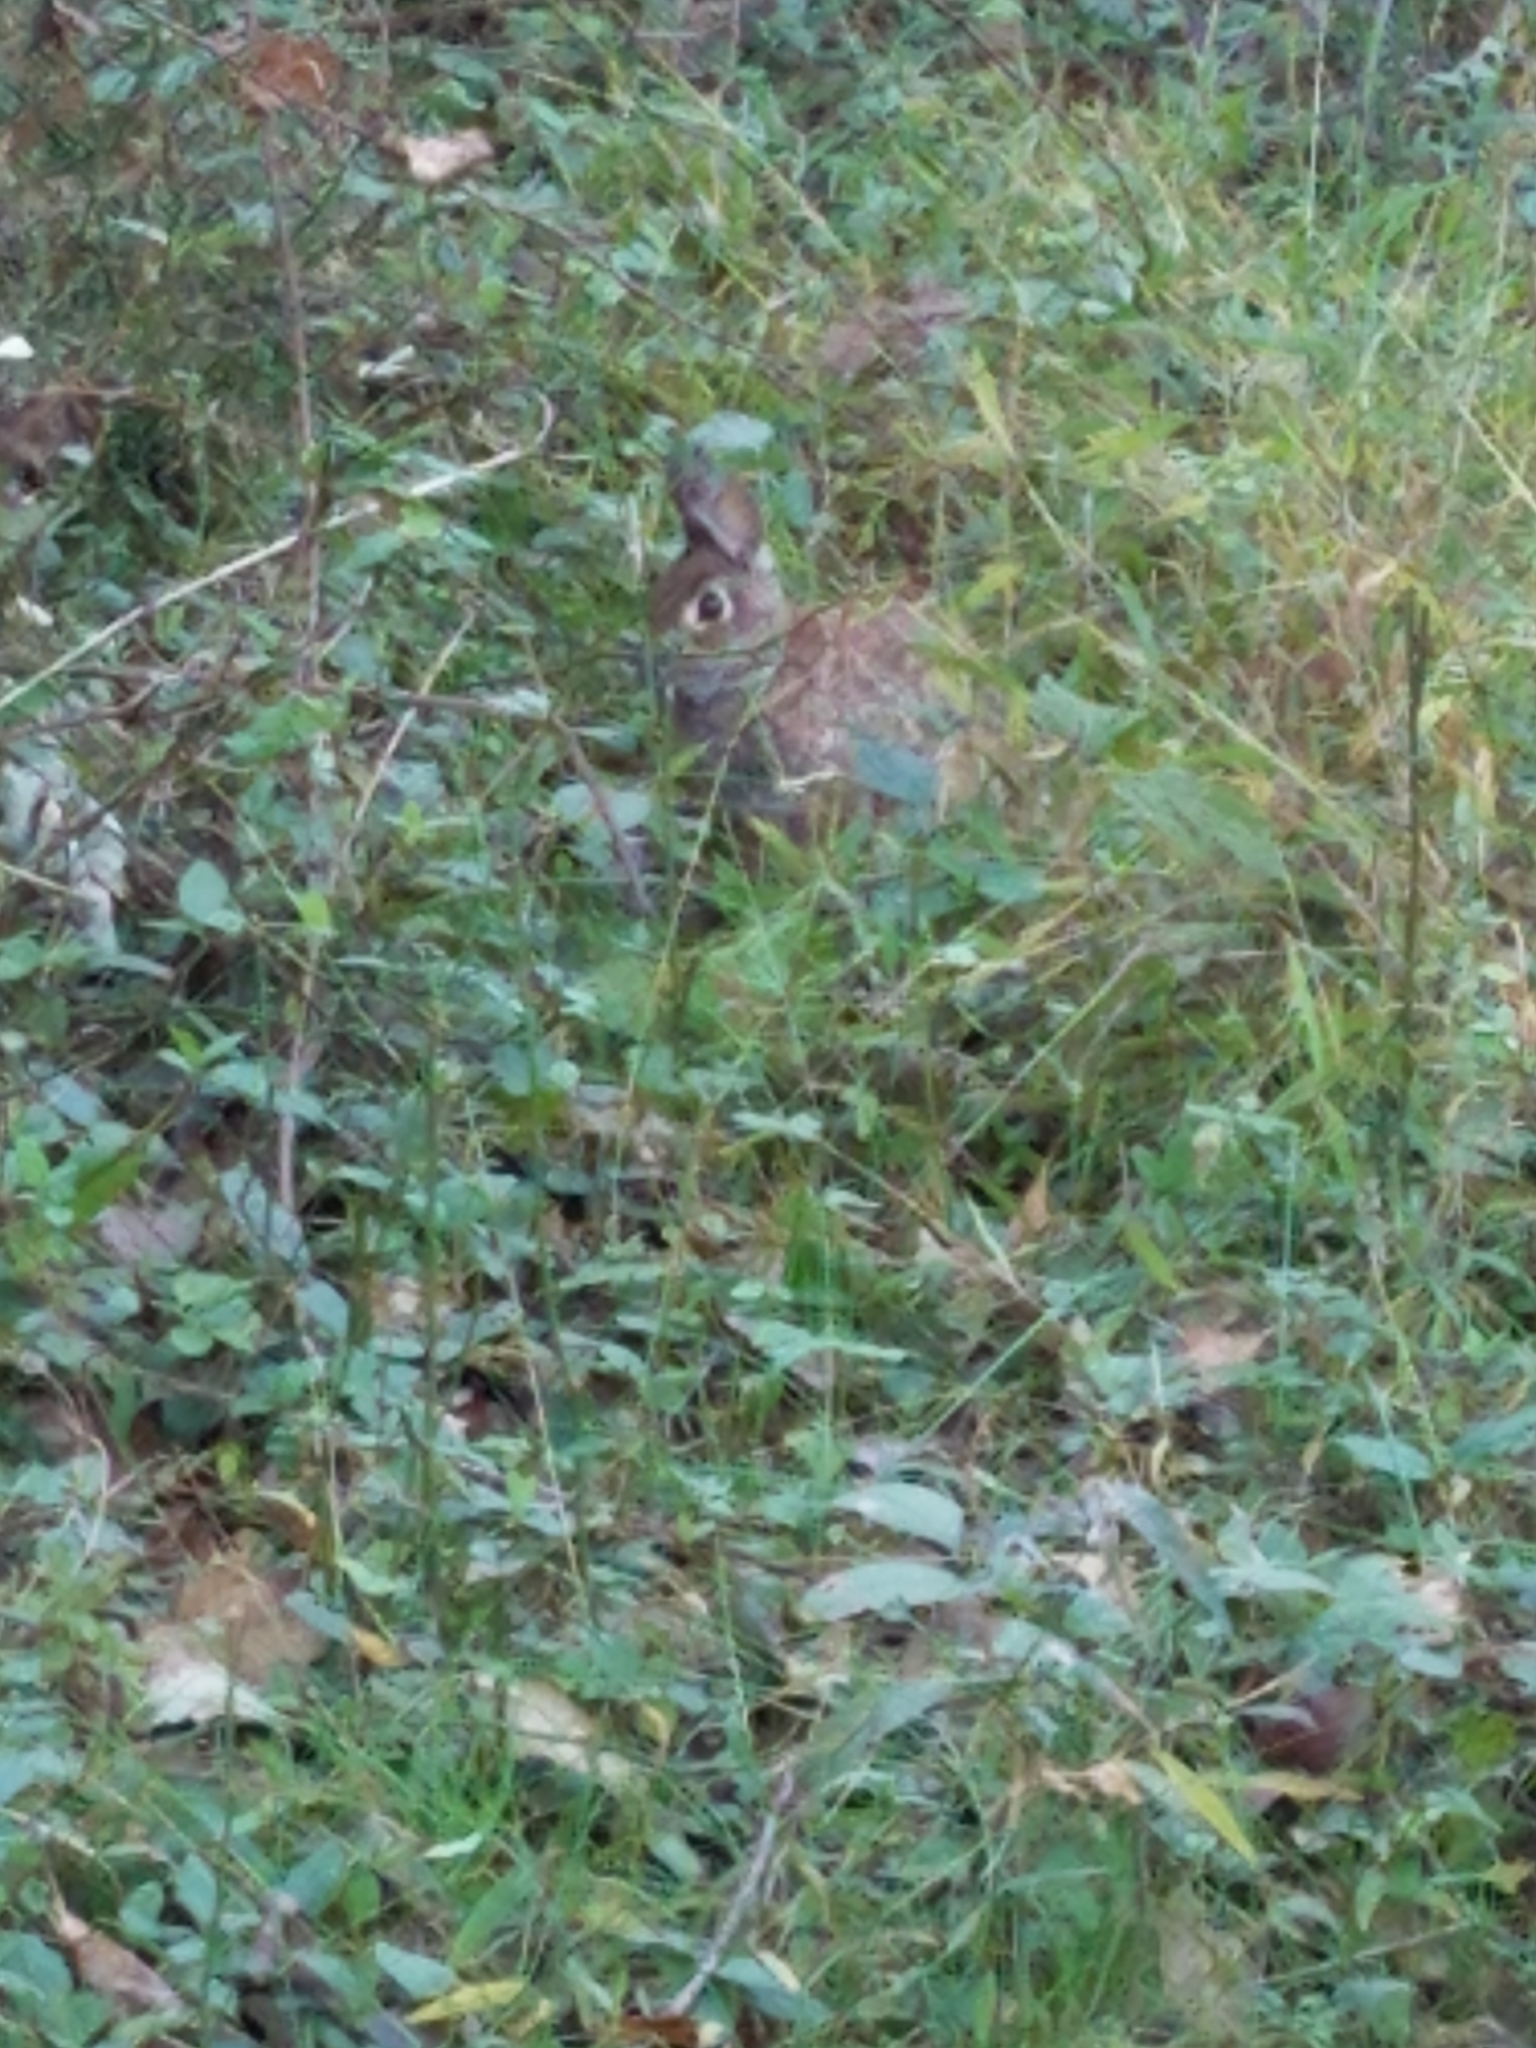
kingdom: Animalia
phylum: Chordata
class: Mammalia
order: Lagomorpha
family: Leporidae
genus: Sylvilagus
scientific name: Sylvilagus floridanus
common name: Eastern cottontail
